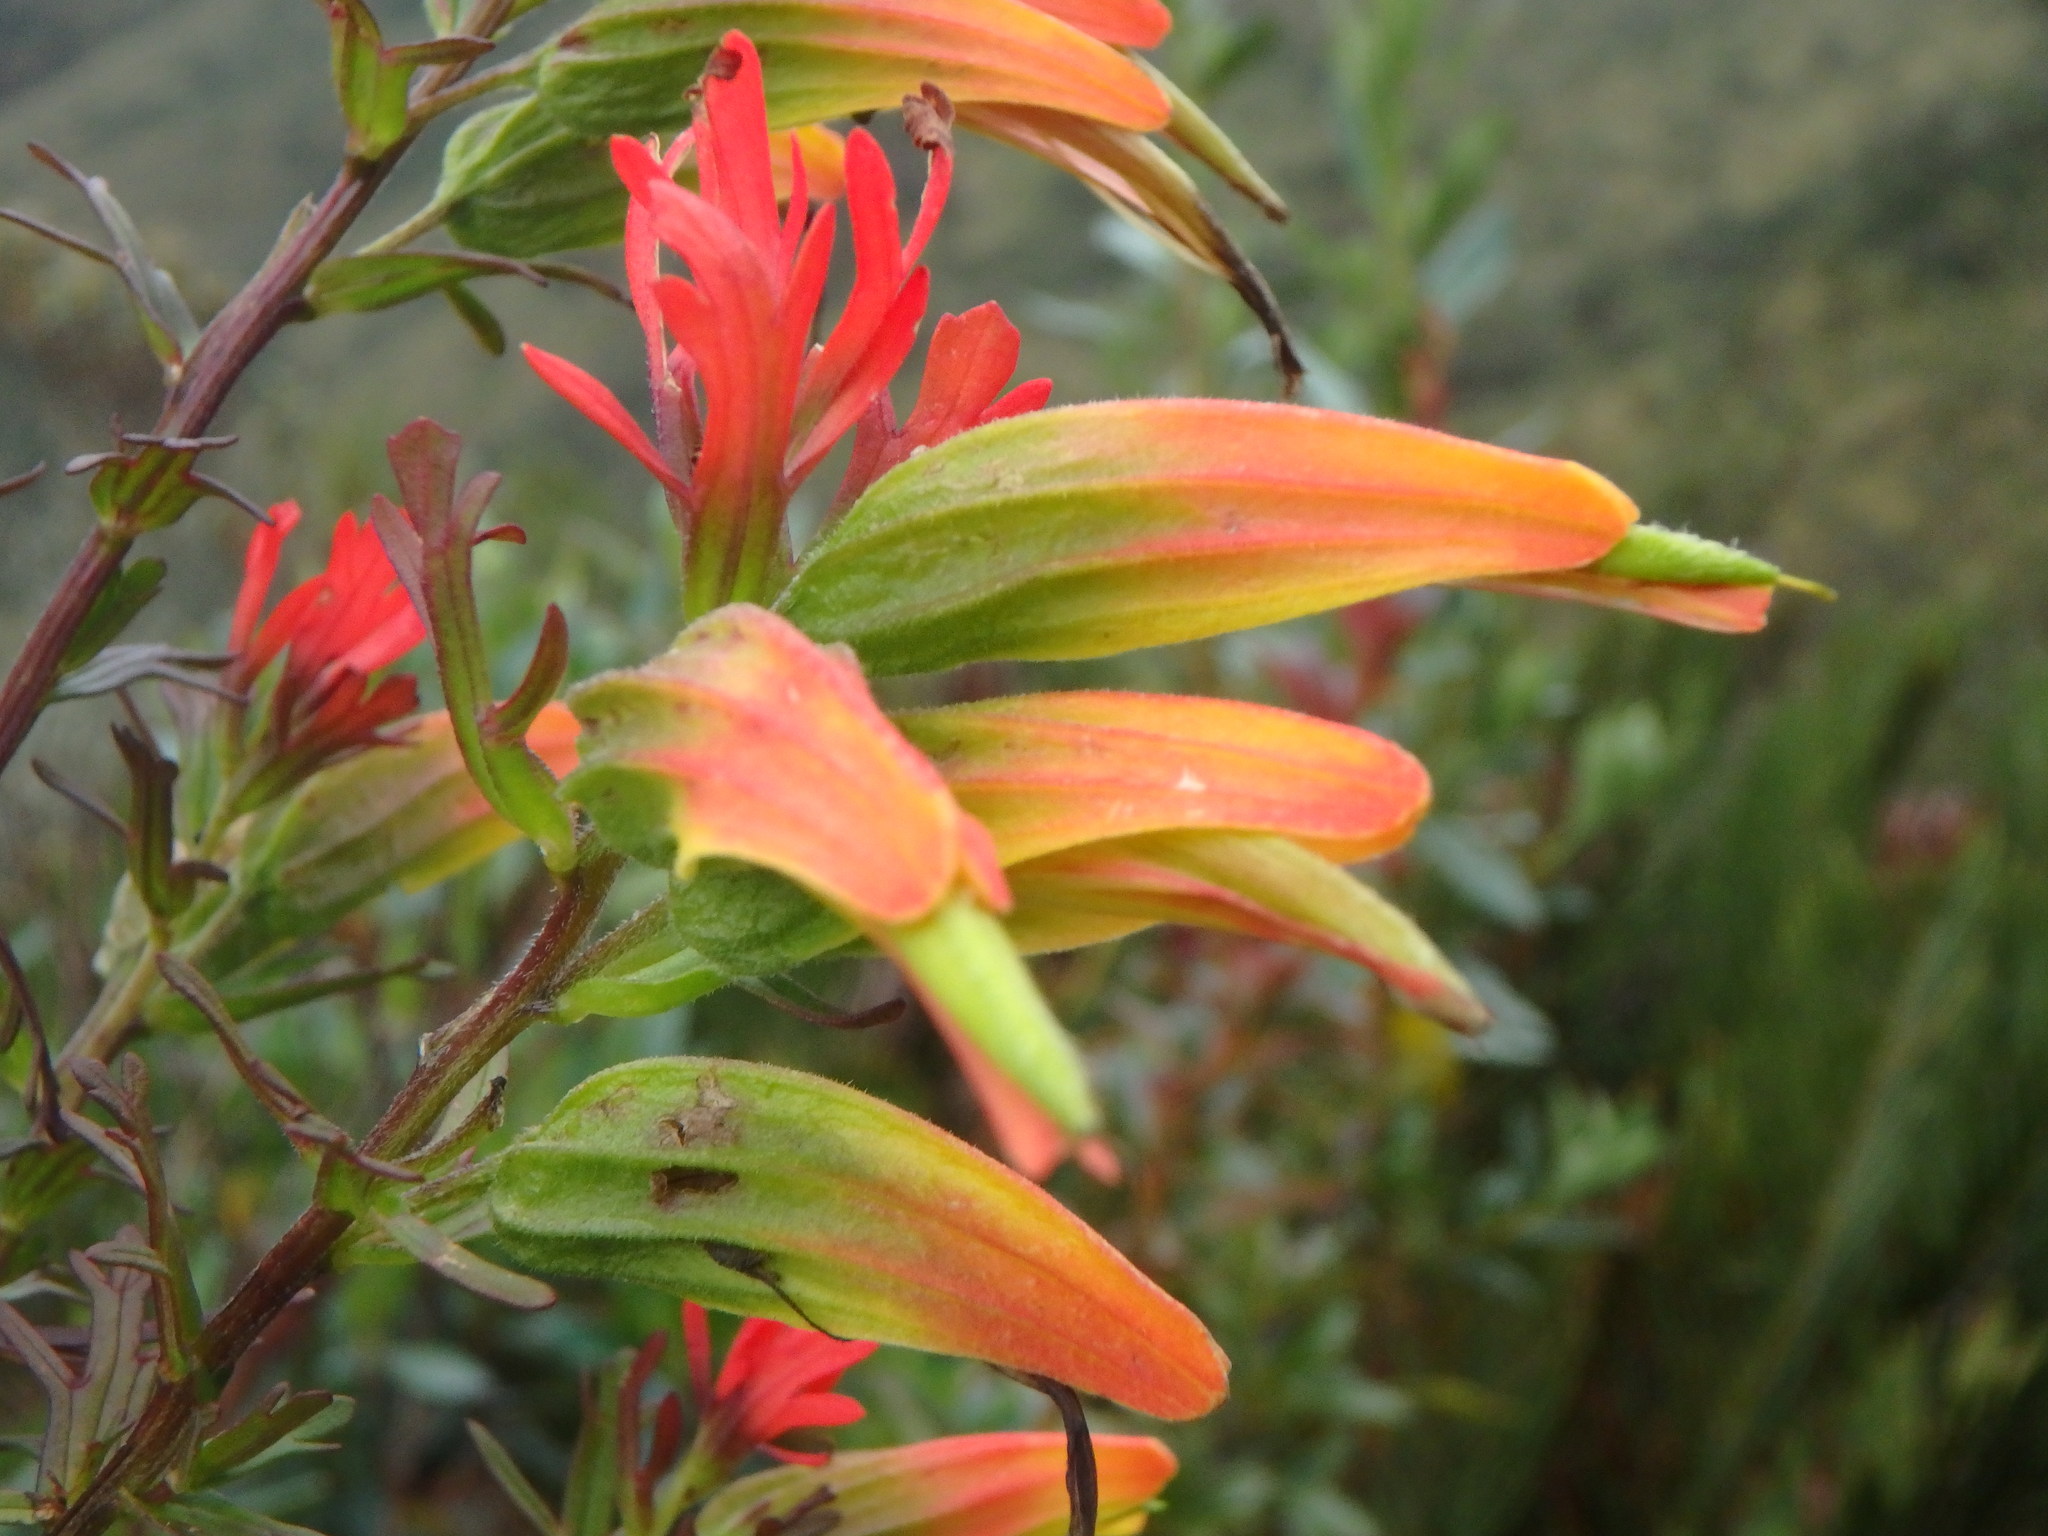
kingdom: Plantae
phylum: Tracheophyta
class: Magnoliopsida
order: Lamiales
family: Orobanchaceae
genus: Castilleja
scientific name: Castilleja fissifolia
